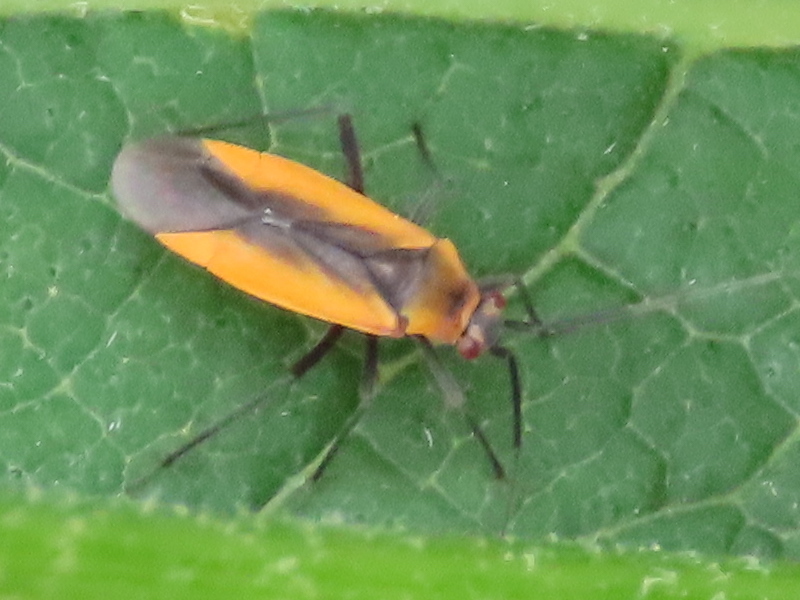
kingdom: Animalia
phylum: Arthropoda
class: Insecta
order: Hemiptera
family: Miridae
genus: Lopidea
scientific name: Lopidea instabilis
